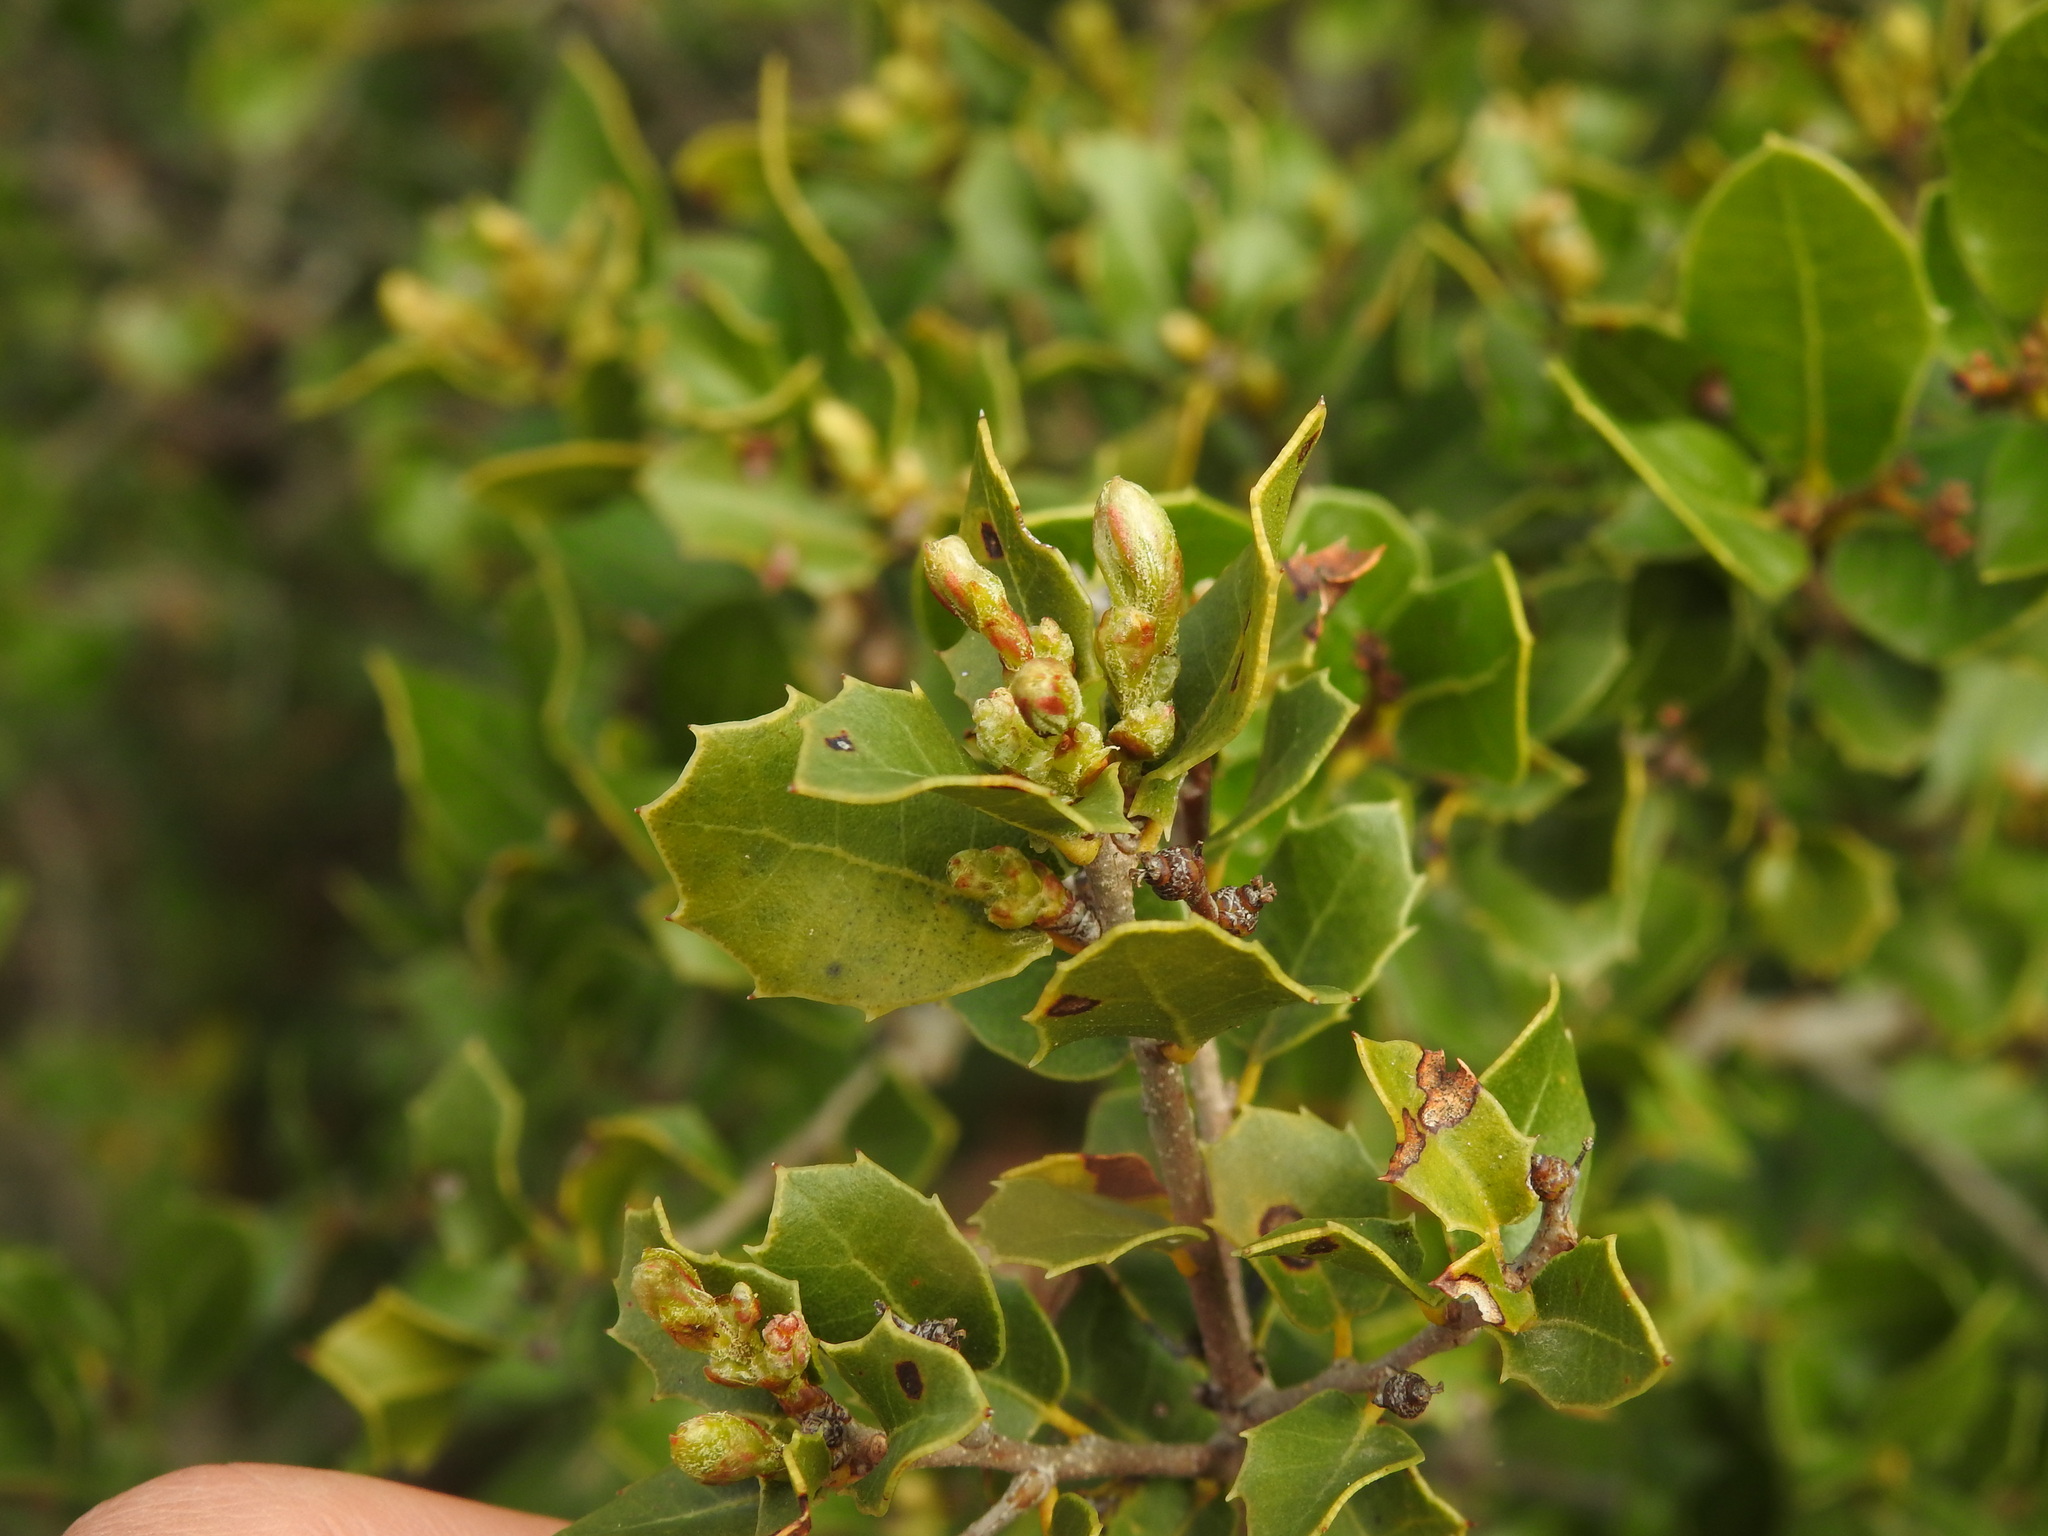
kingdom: Plantae
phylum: Tracheophyta
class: Magnoliopsida
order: Fagales
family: Fagaceae
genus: Quercus
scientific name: Quercus coccifera
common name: Kermes oak
